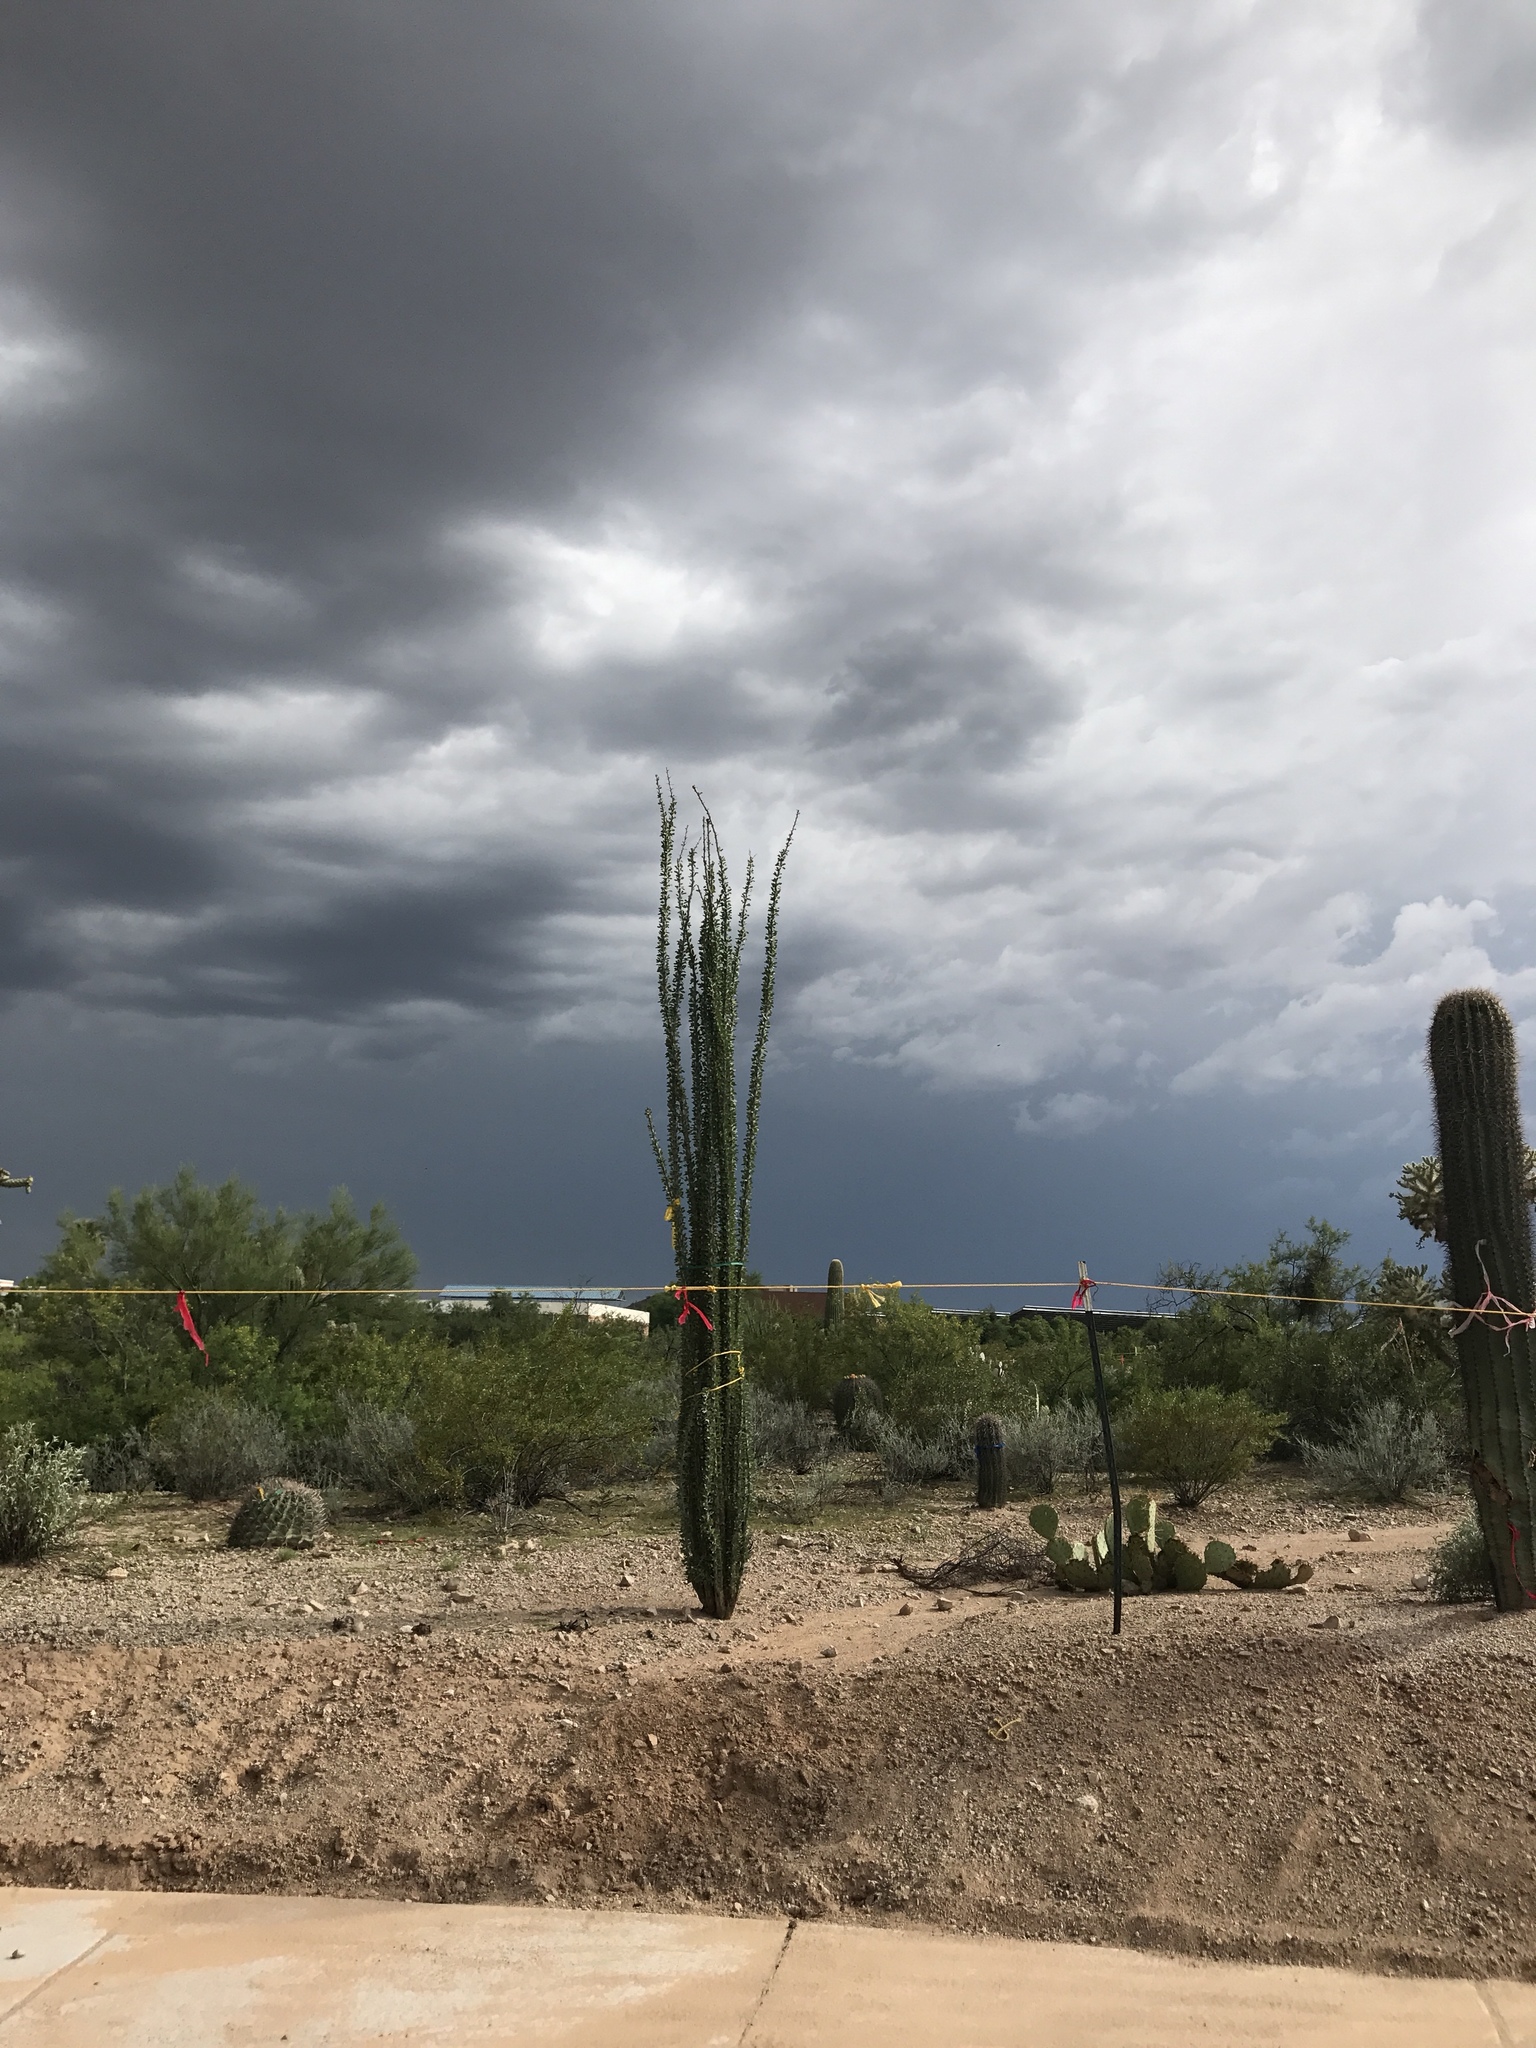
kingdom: Plantae
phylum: Tracheophyta
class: Magnoliopsida
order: Ericales
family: Fouquieriaceae
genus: Fouquieria
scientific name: Fouquieria splendens
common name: Vine-cactus
